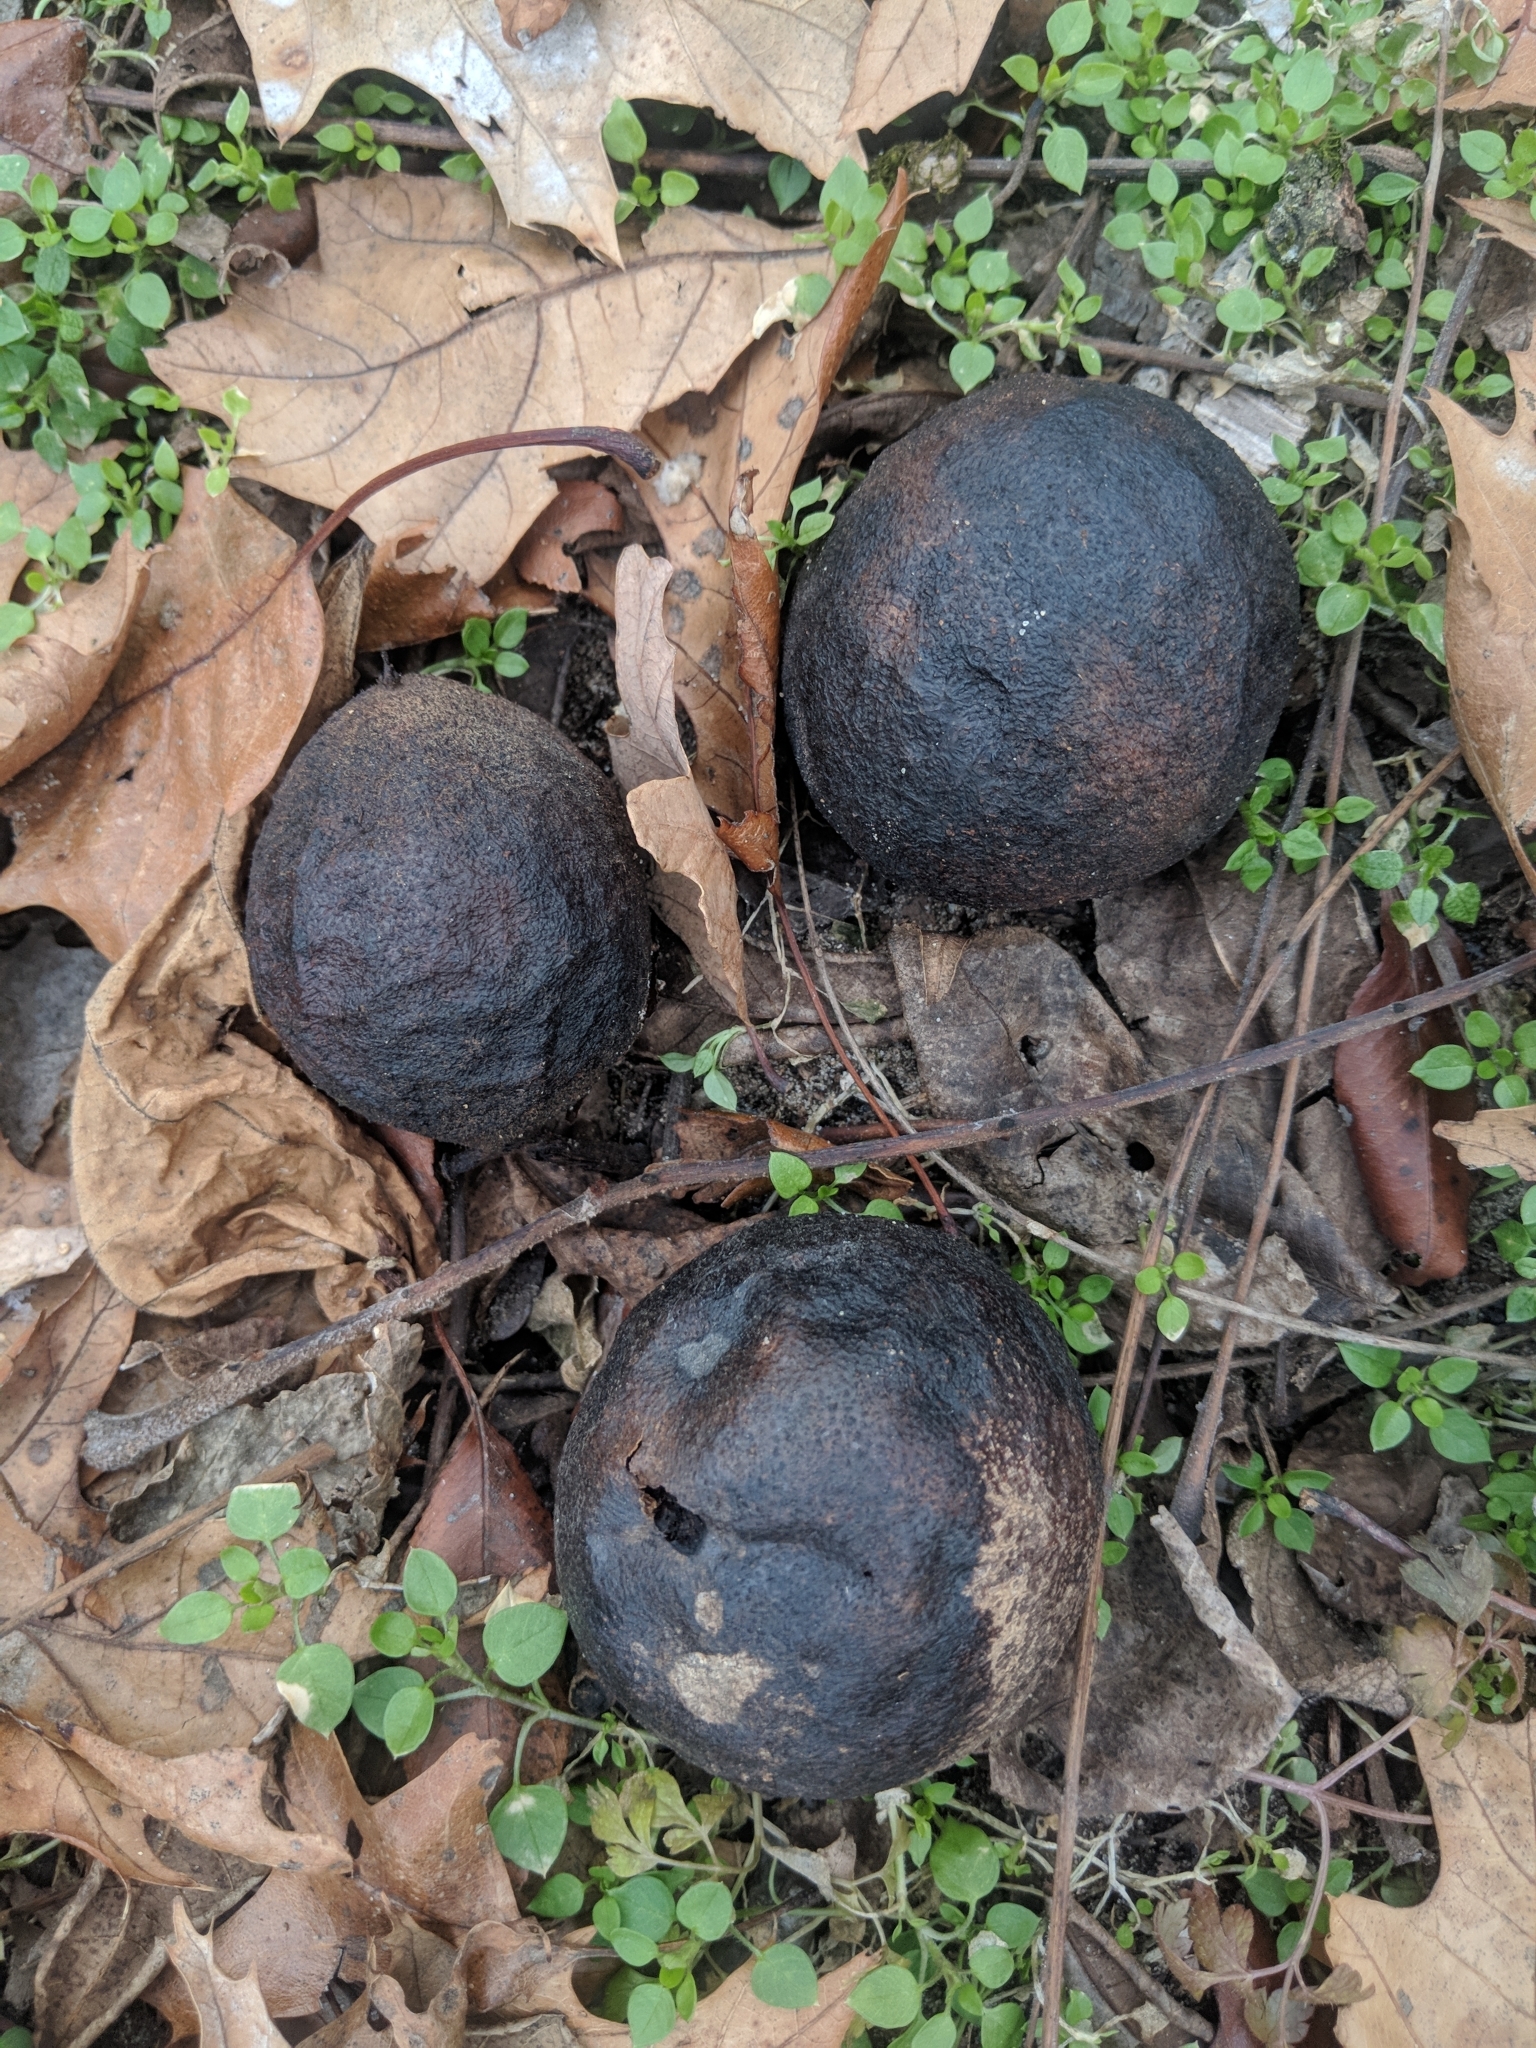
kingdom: Plantae
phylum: Tracheophyta
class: Magnoliopsida
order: Fagales
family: Juglandaceae
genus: Juglans
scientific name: Juglans nigra
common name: Black walnut
